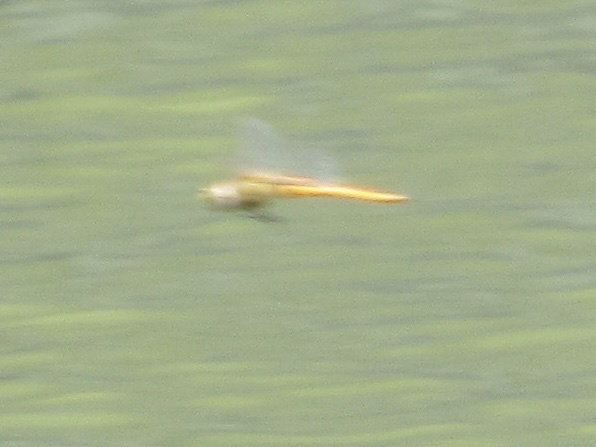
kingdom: Animalia
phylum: Arthropoda
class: Insecta
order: Odonata
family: Libellulidae
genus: Pantala
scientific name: Pantala flavescens
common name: Wandering glider
